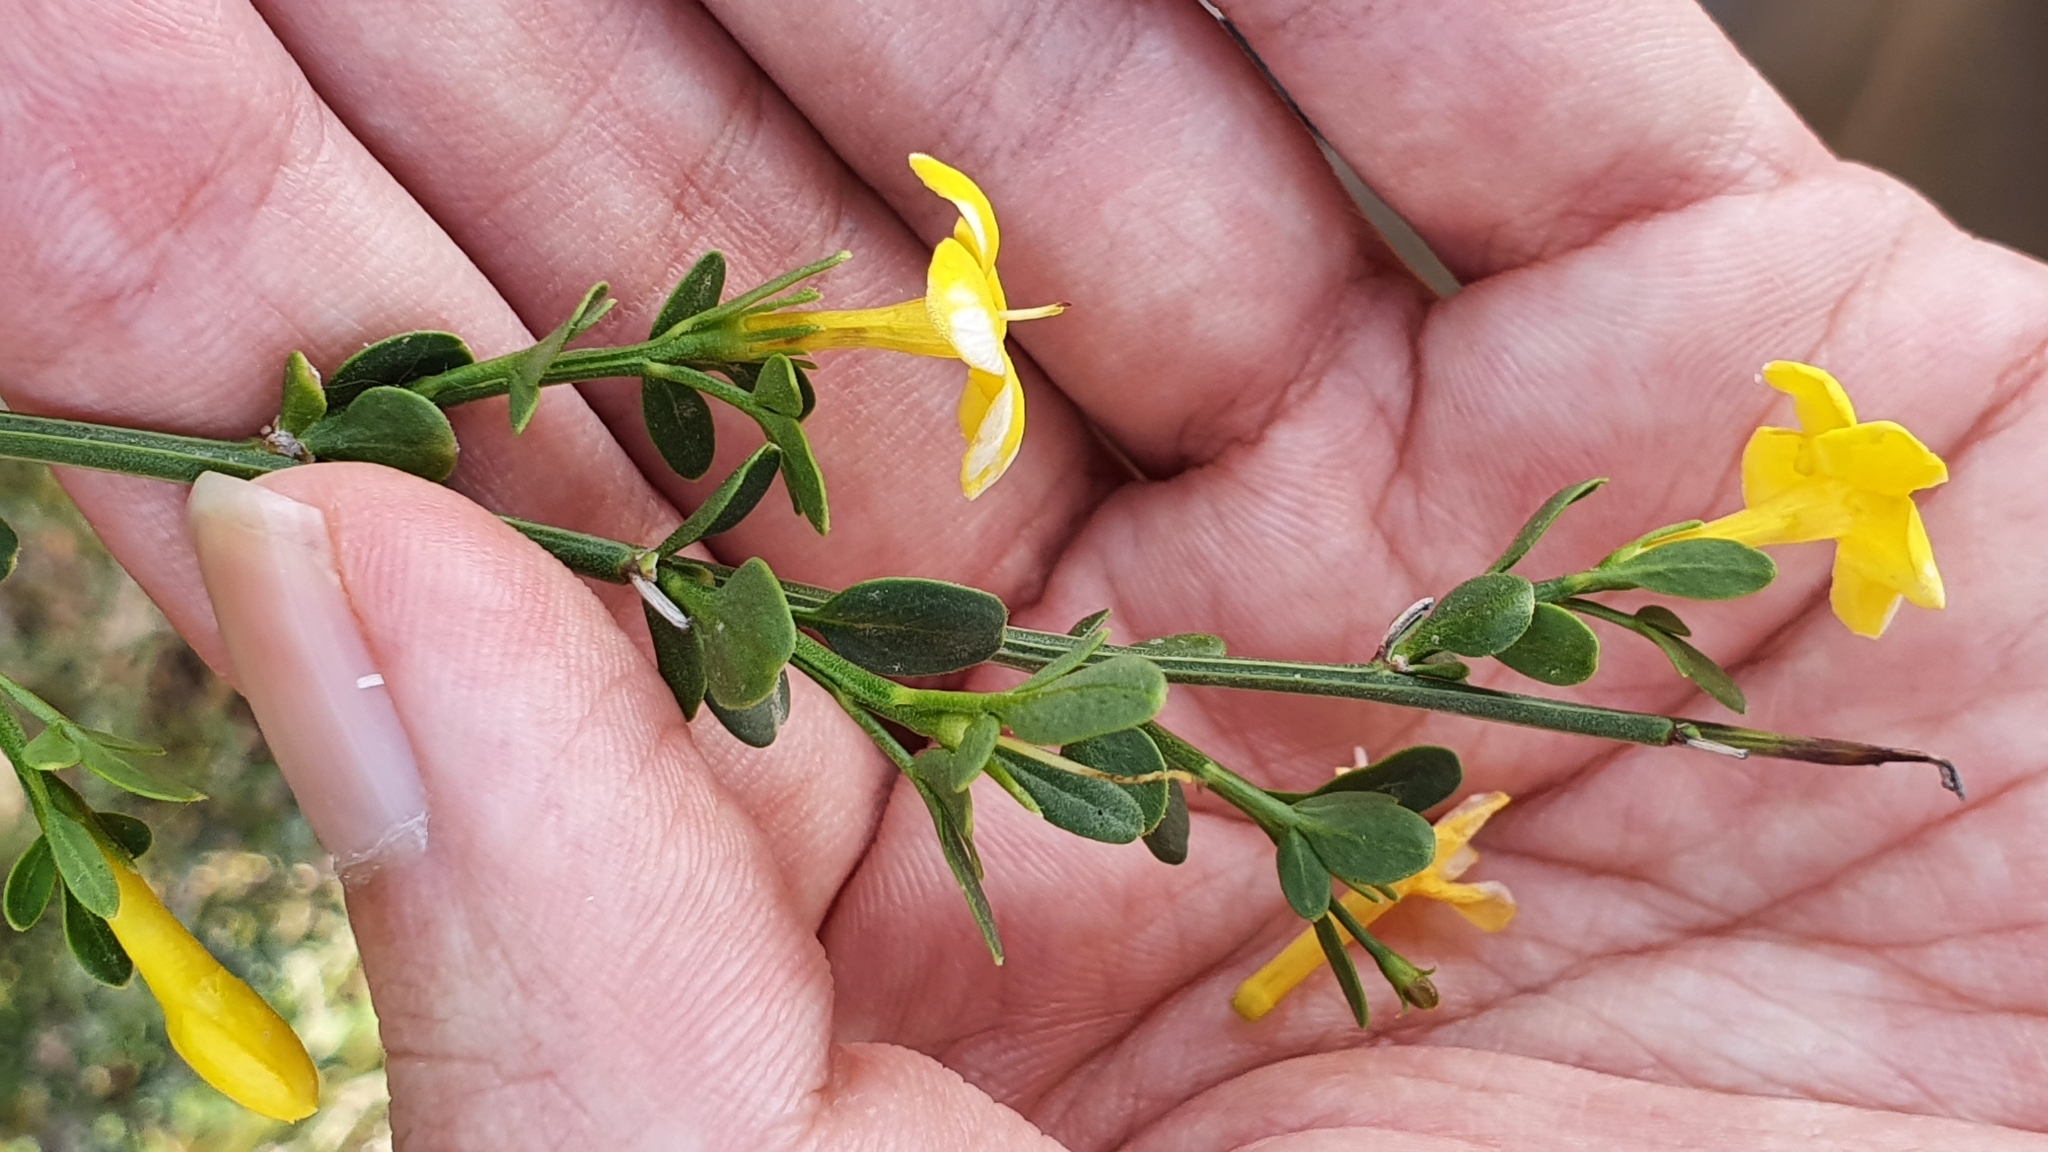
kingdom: Plantae
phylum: Tracheophyta
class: Magnoliopsida
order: Lamiales
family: Oleaceae
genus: Chrysojasminum
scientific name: Chrysojasminum fruticans
